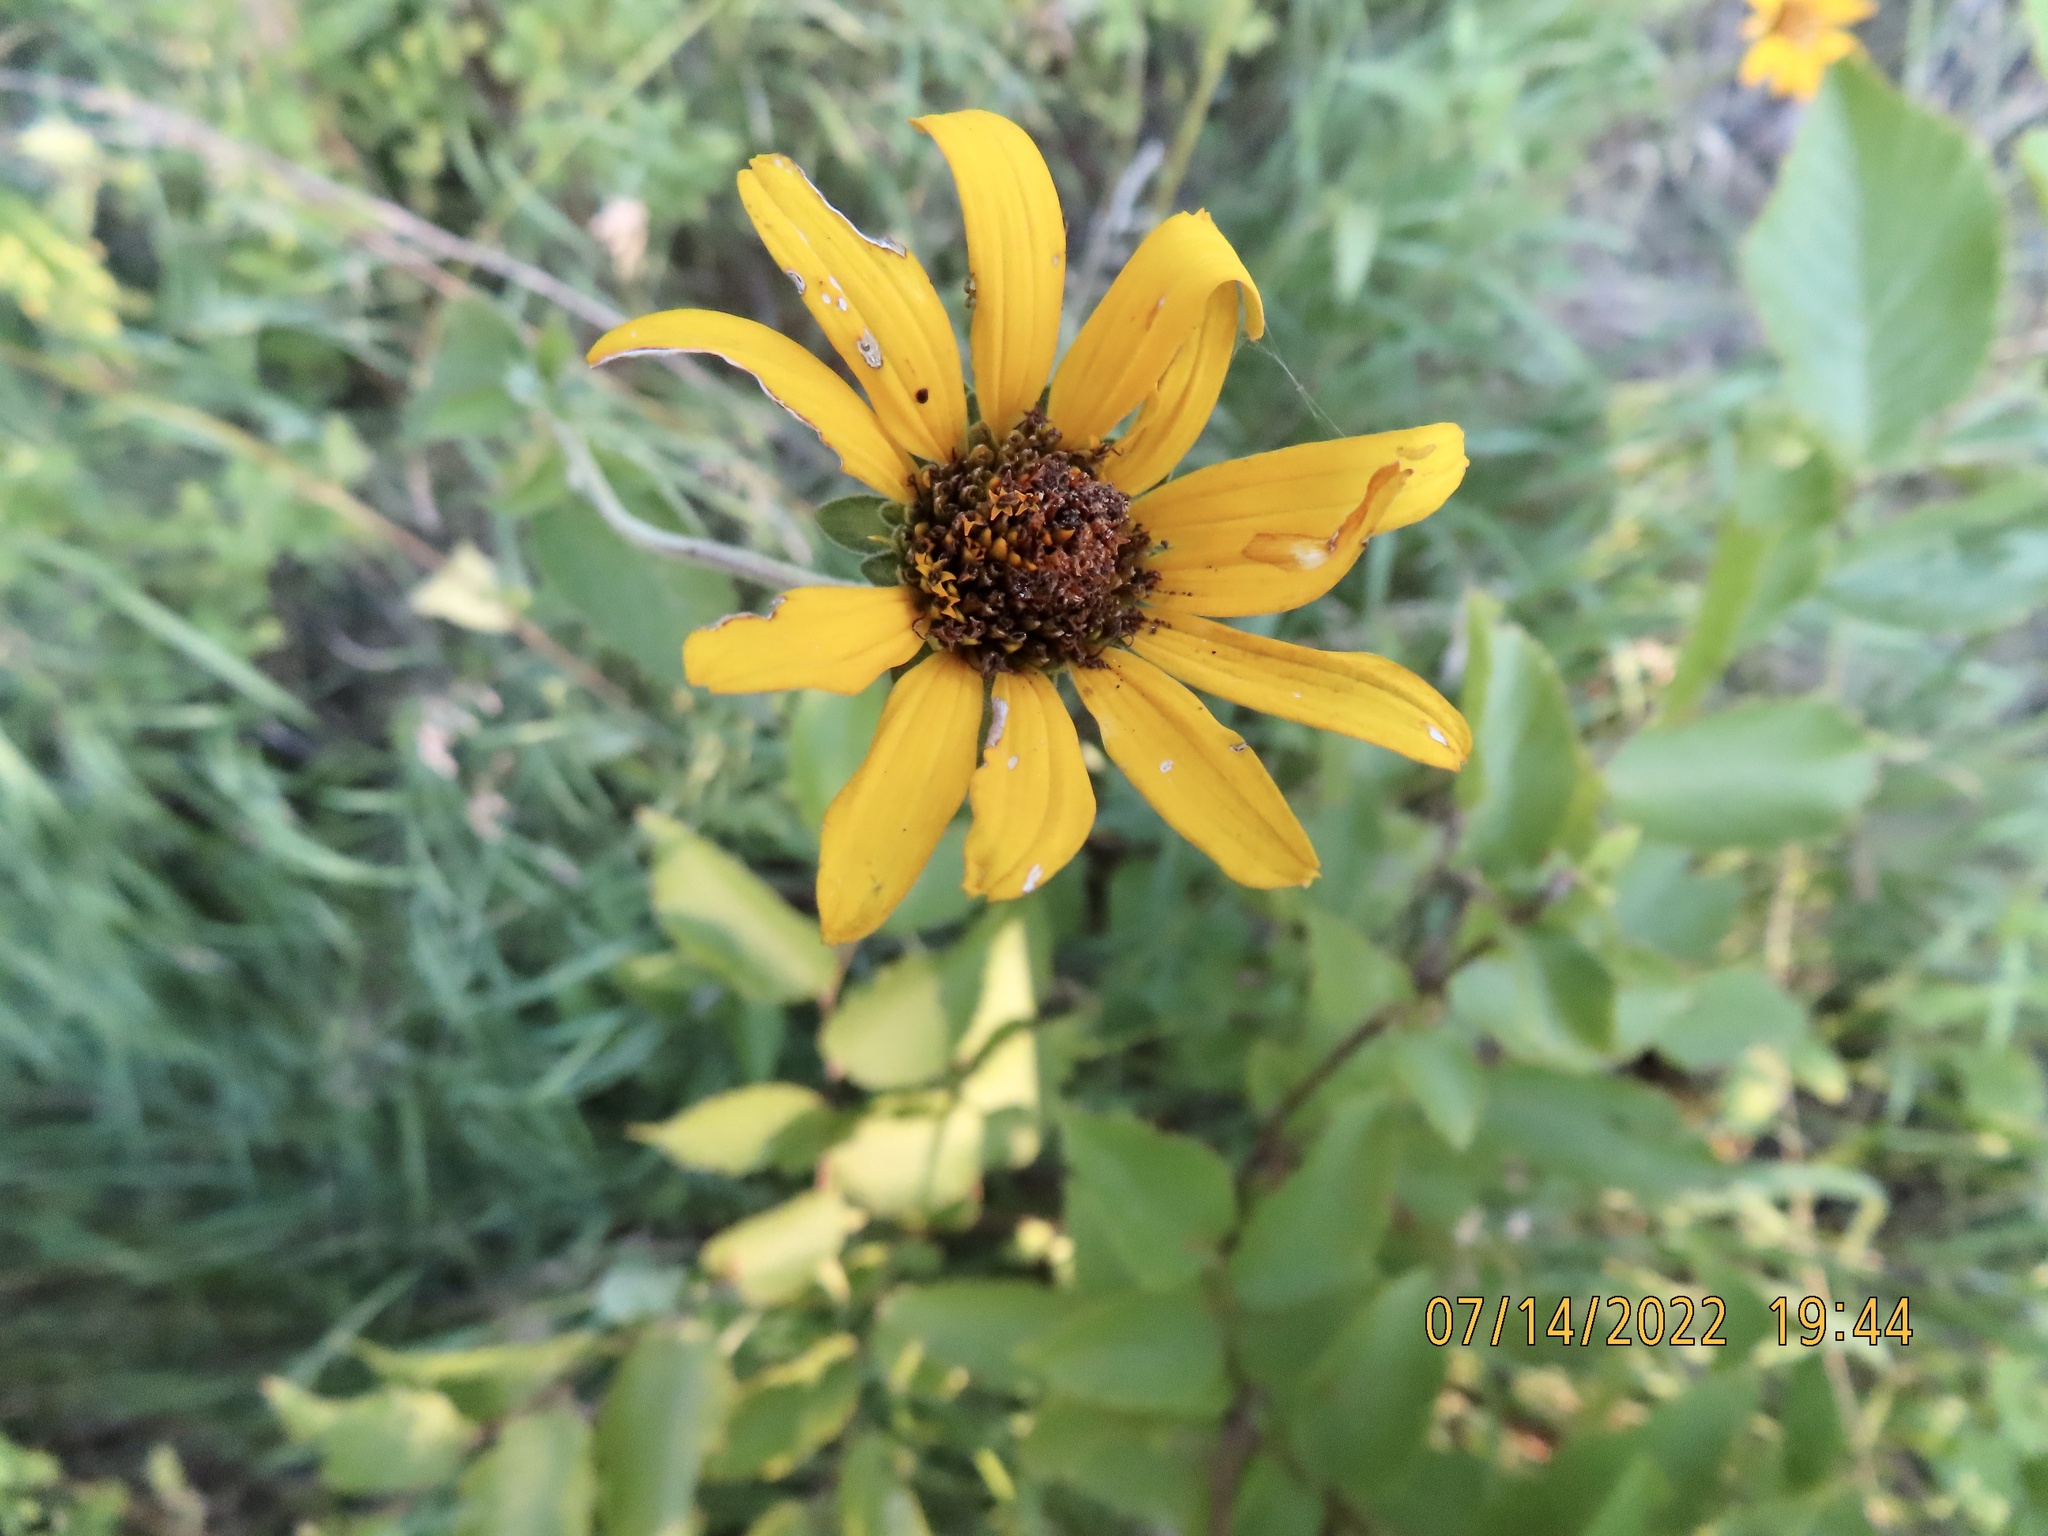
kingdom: Plantae
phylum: Tracheophyta
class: Magnoliopsida
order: Asterales
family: Asteraceae
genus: Heliopsis
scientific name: Heliopsis helianthoides
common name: False sunflower
